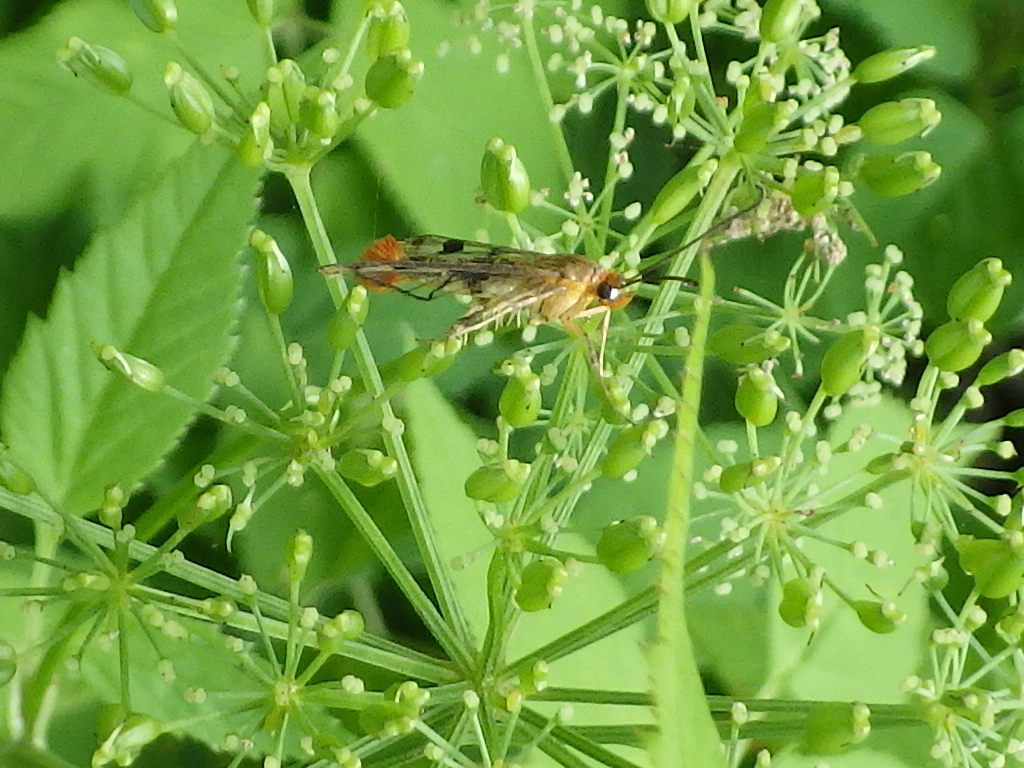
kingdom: Animalia
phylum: Arthropoda
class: Insecta
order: Lepidoptera
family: Sesiidae
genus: Synanthedon
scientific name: Synanthedon acerni
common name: Maple callus borer moth
